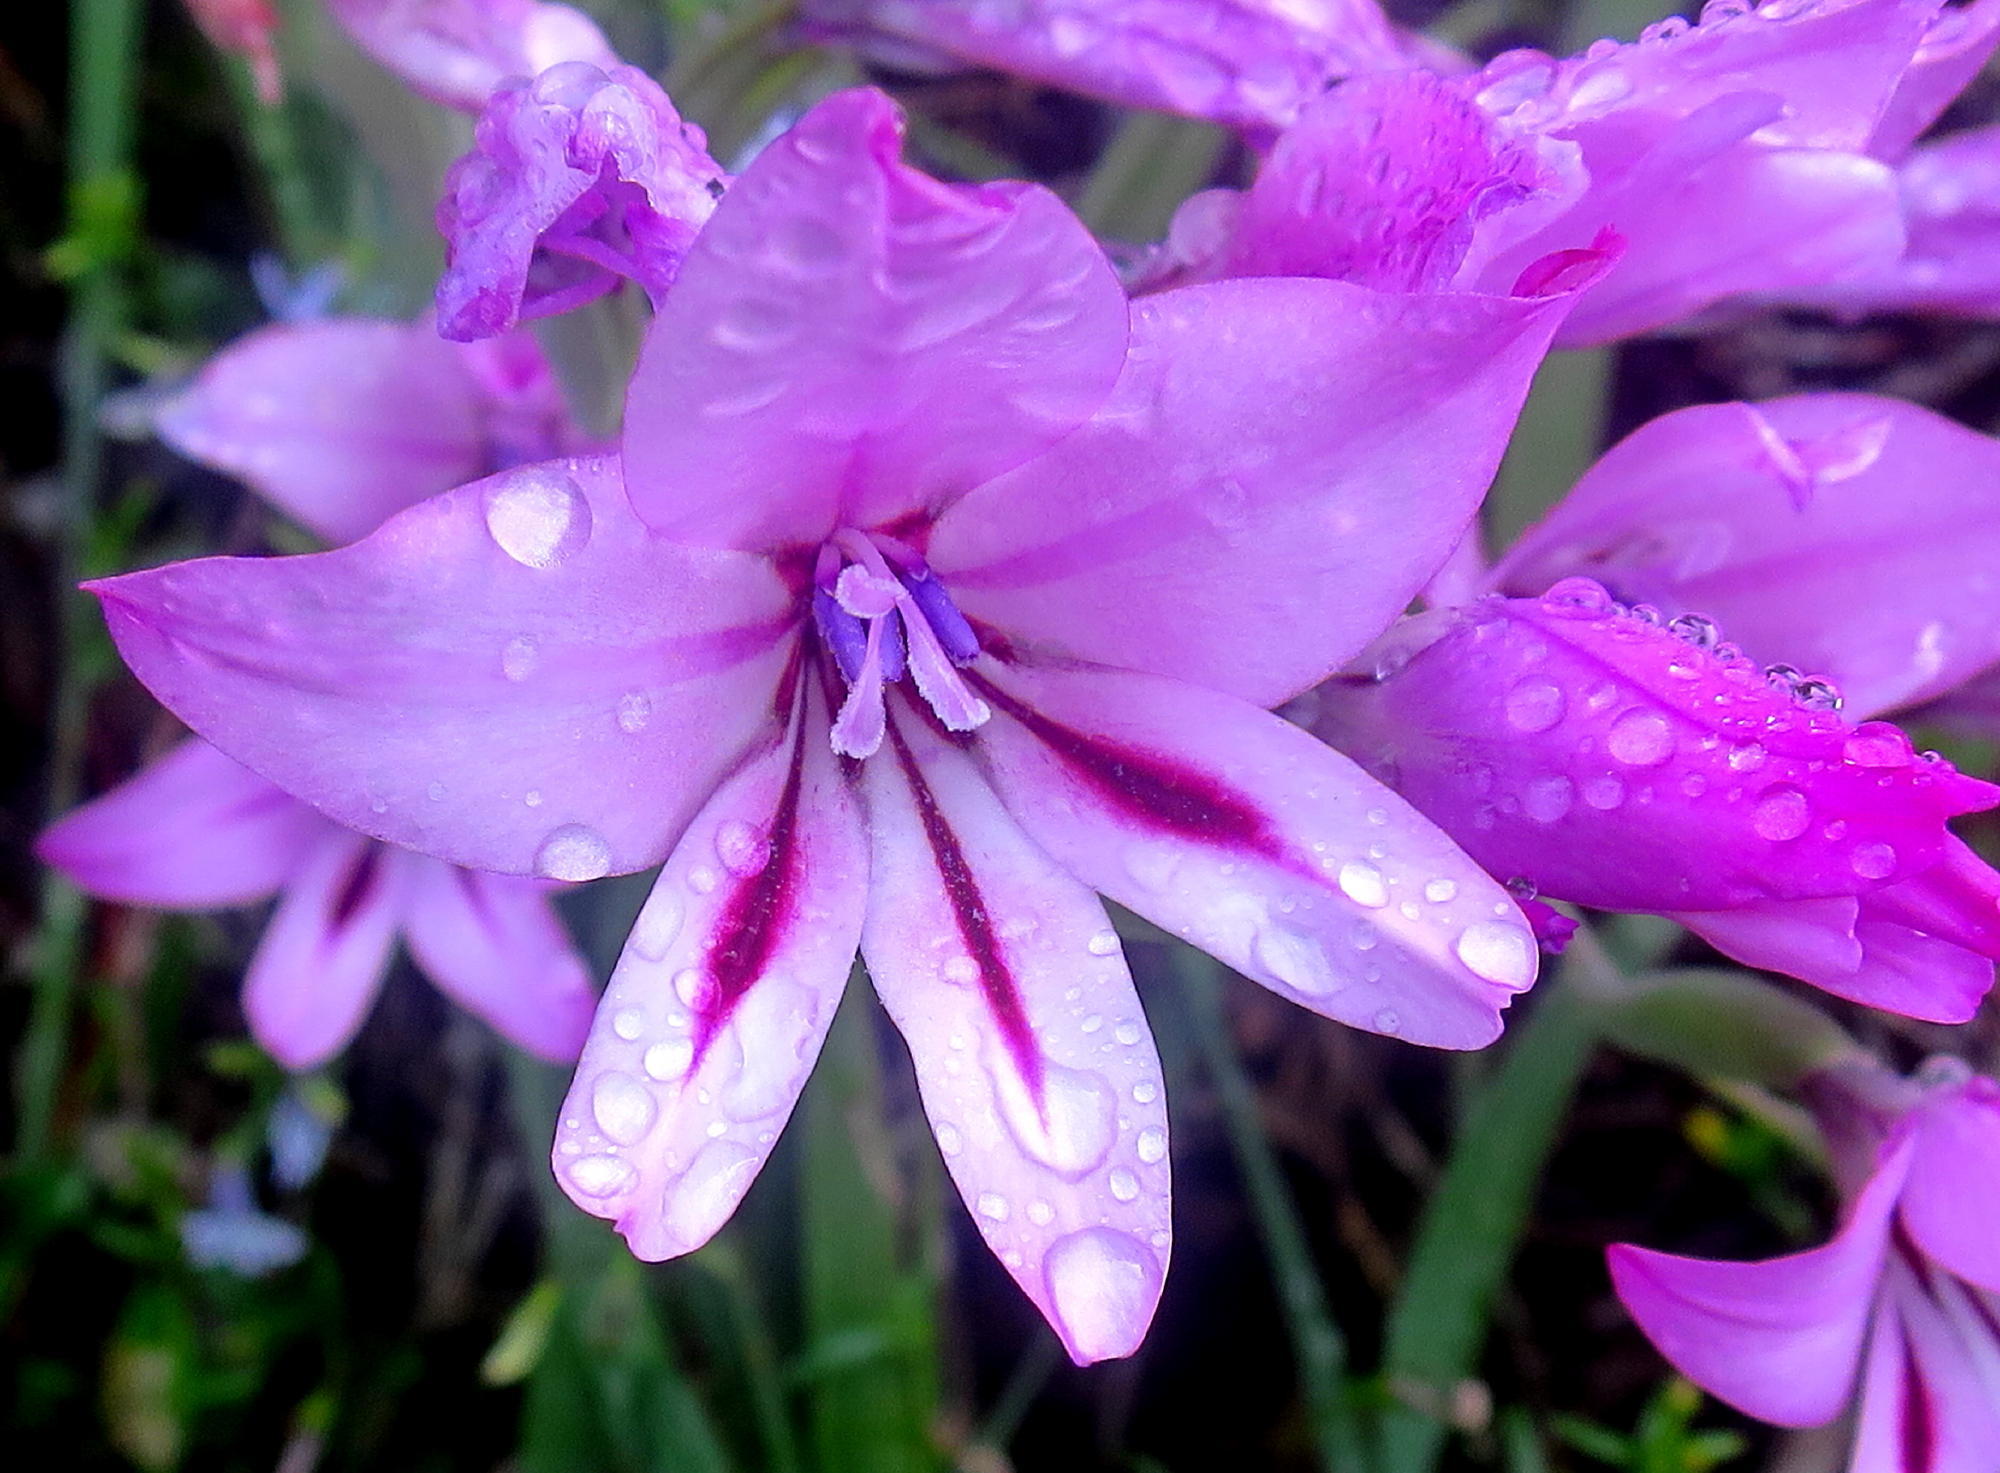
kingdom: Plantae
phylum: Tracheophyta
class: Liliopsida
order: Asparagales
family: Iridaceae
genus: Gladiolus
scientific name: Gladiolus grandiflorus
